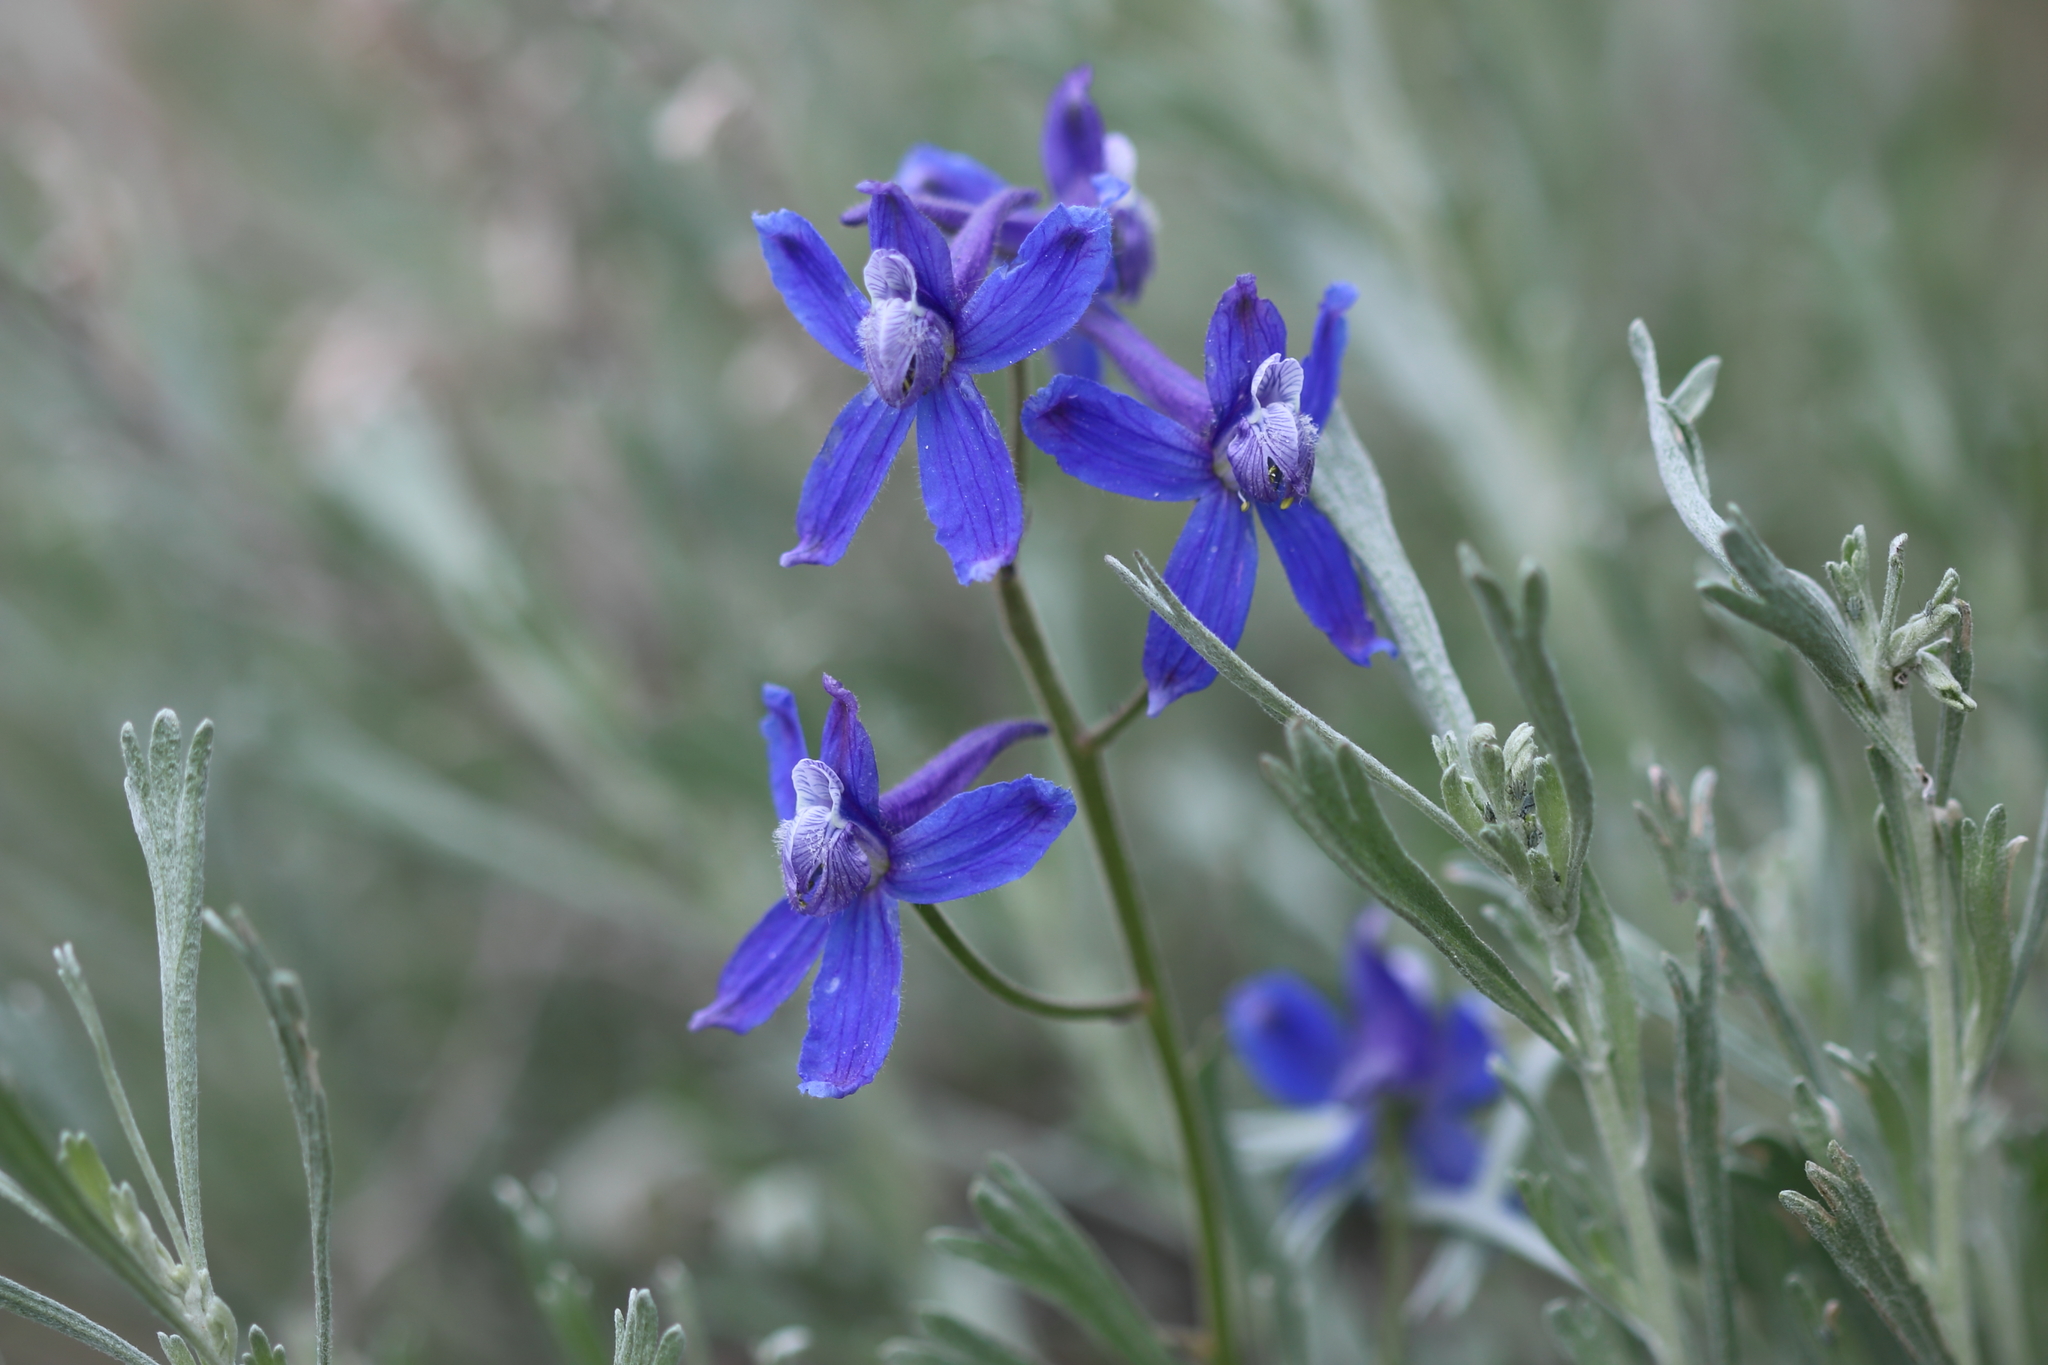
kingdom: Plantae
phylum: Tracheophyta
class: Magnoliopsida
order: Ranunculales
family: Ranunculaceae
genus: Delphinium
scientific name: Delphinium nuttallianum
